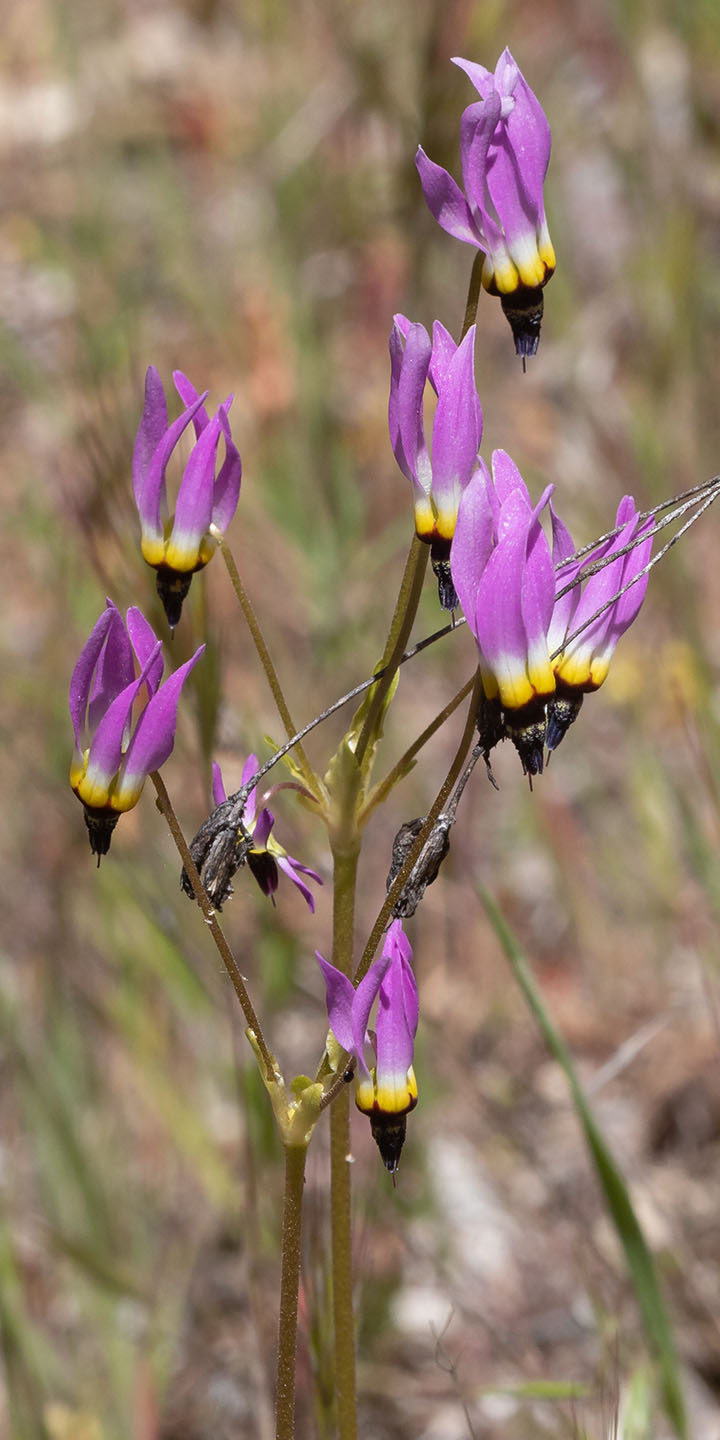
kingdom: Plantae
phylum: Tracheophyta
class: Magnoliopsida
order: Ericales
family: Primulaceae
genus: Dodecatheon
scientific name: Dodecatheon clevelandii
